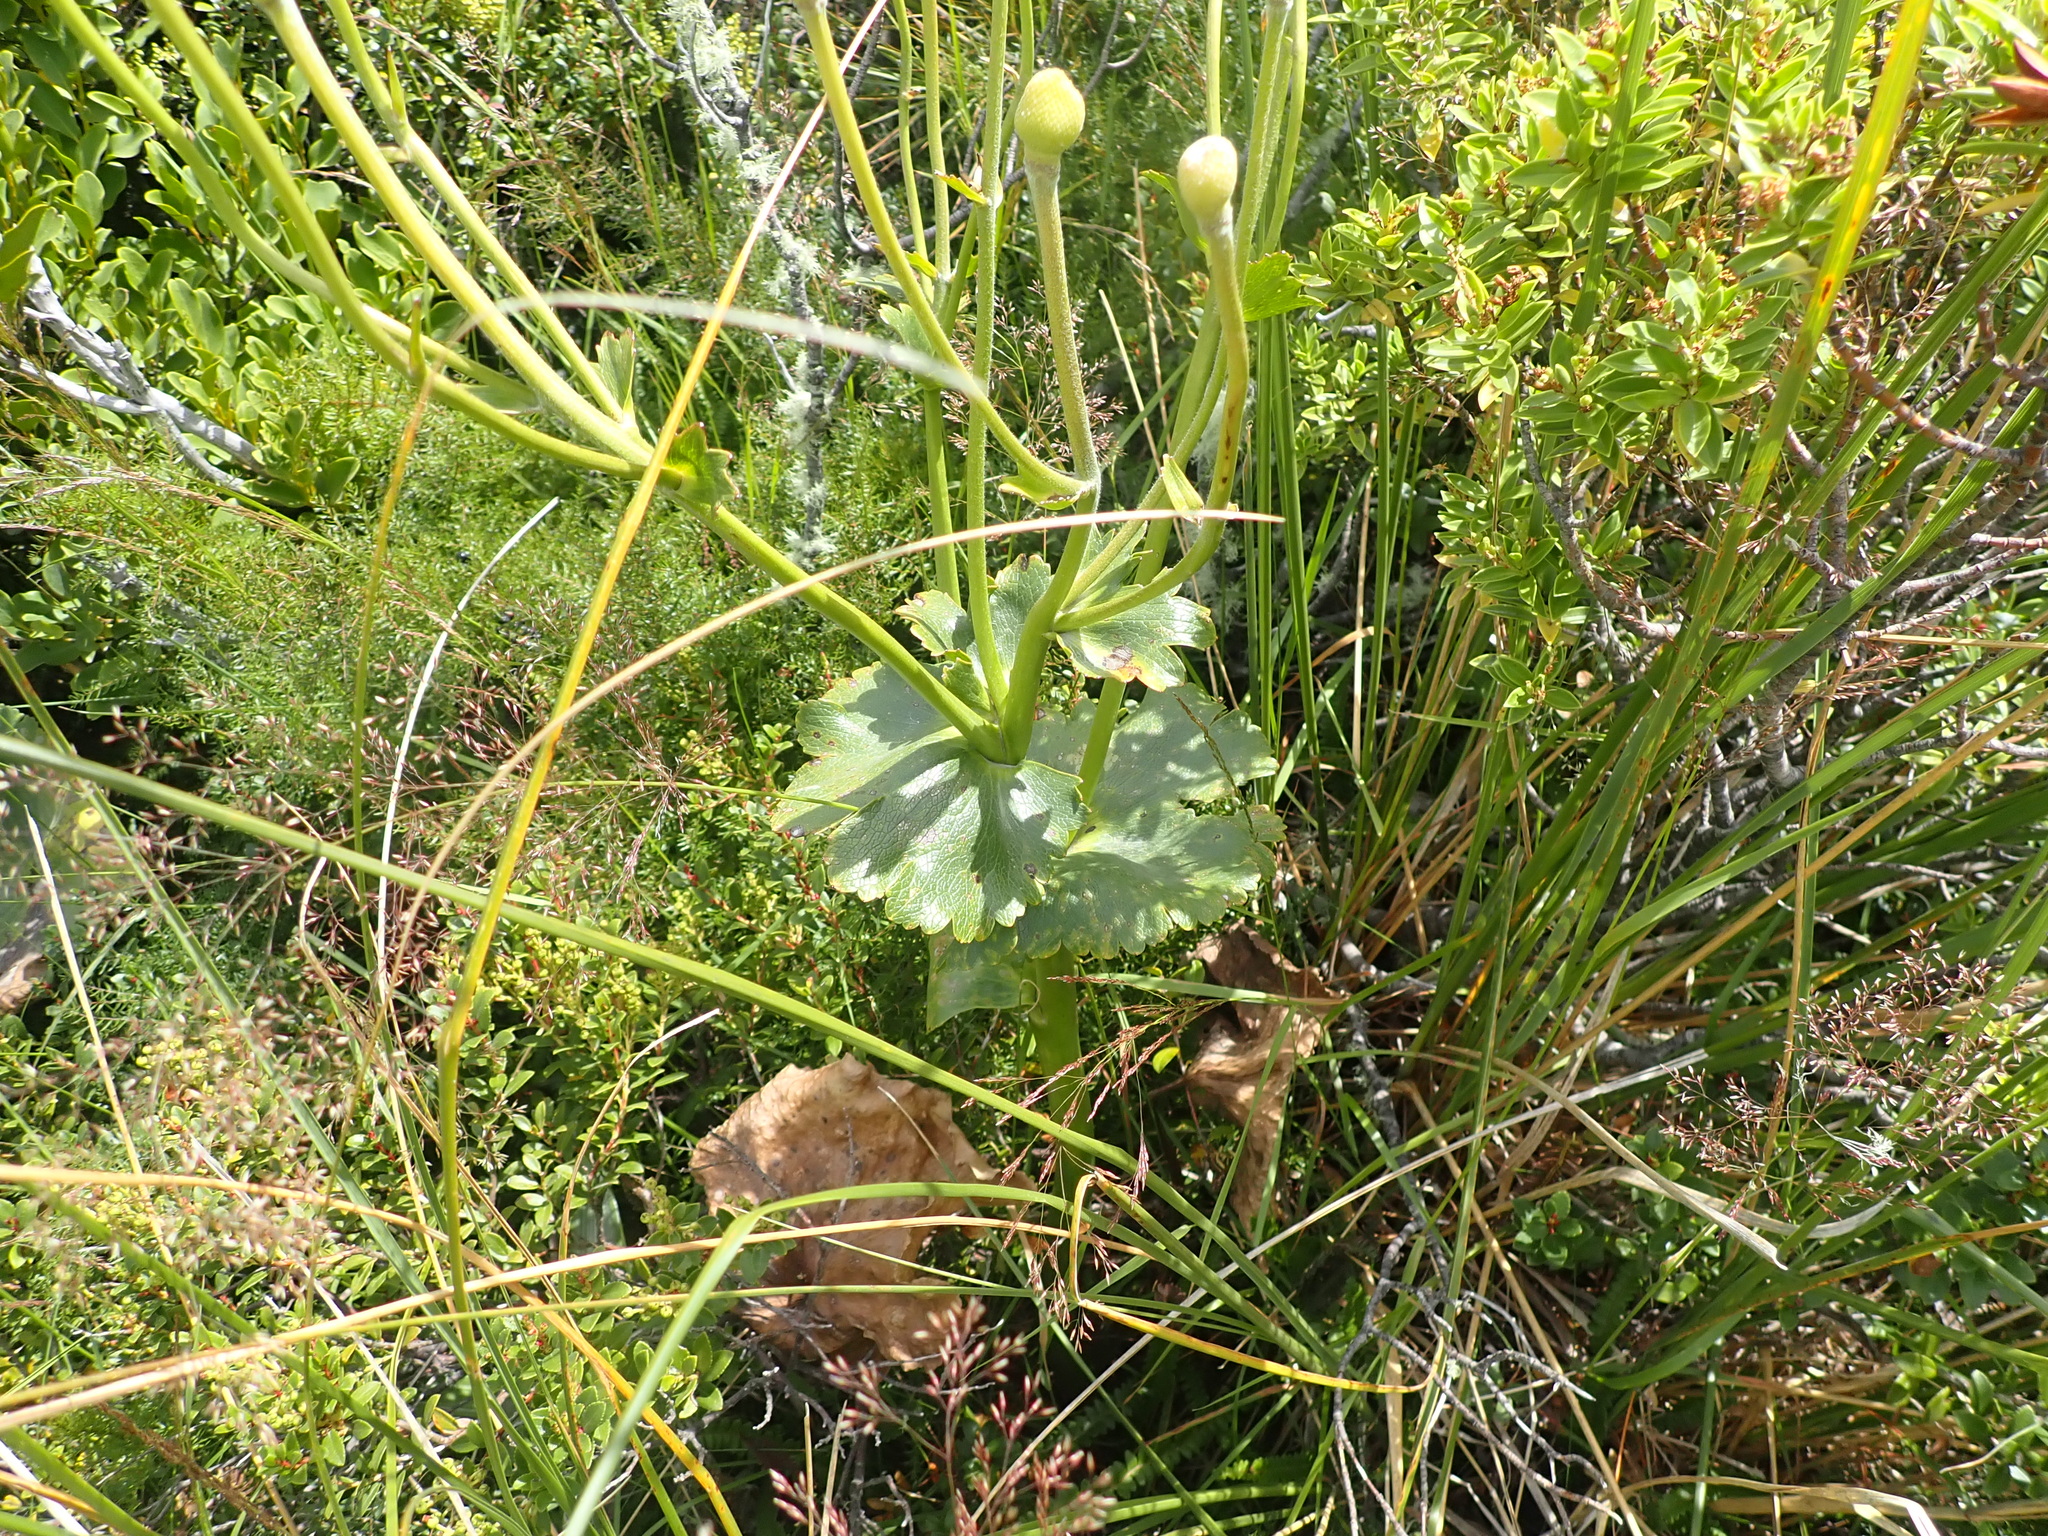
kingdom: Plantae
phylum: Tracheophyta
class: Magnoliopsida
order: Ranunculales
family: Ranunculaceae
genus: Ranunculus
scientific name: Ranunculus lyallii
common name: Mountain-lily
